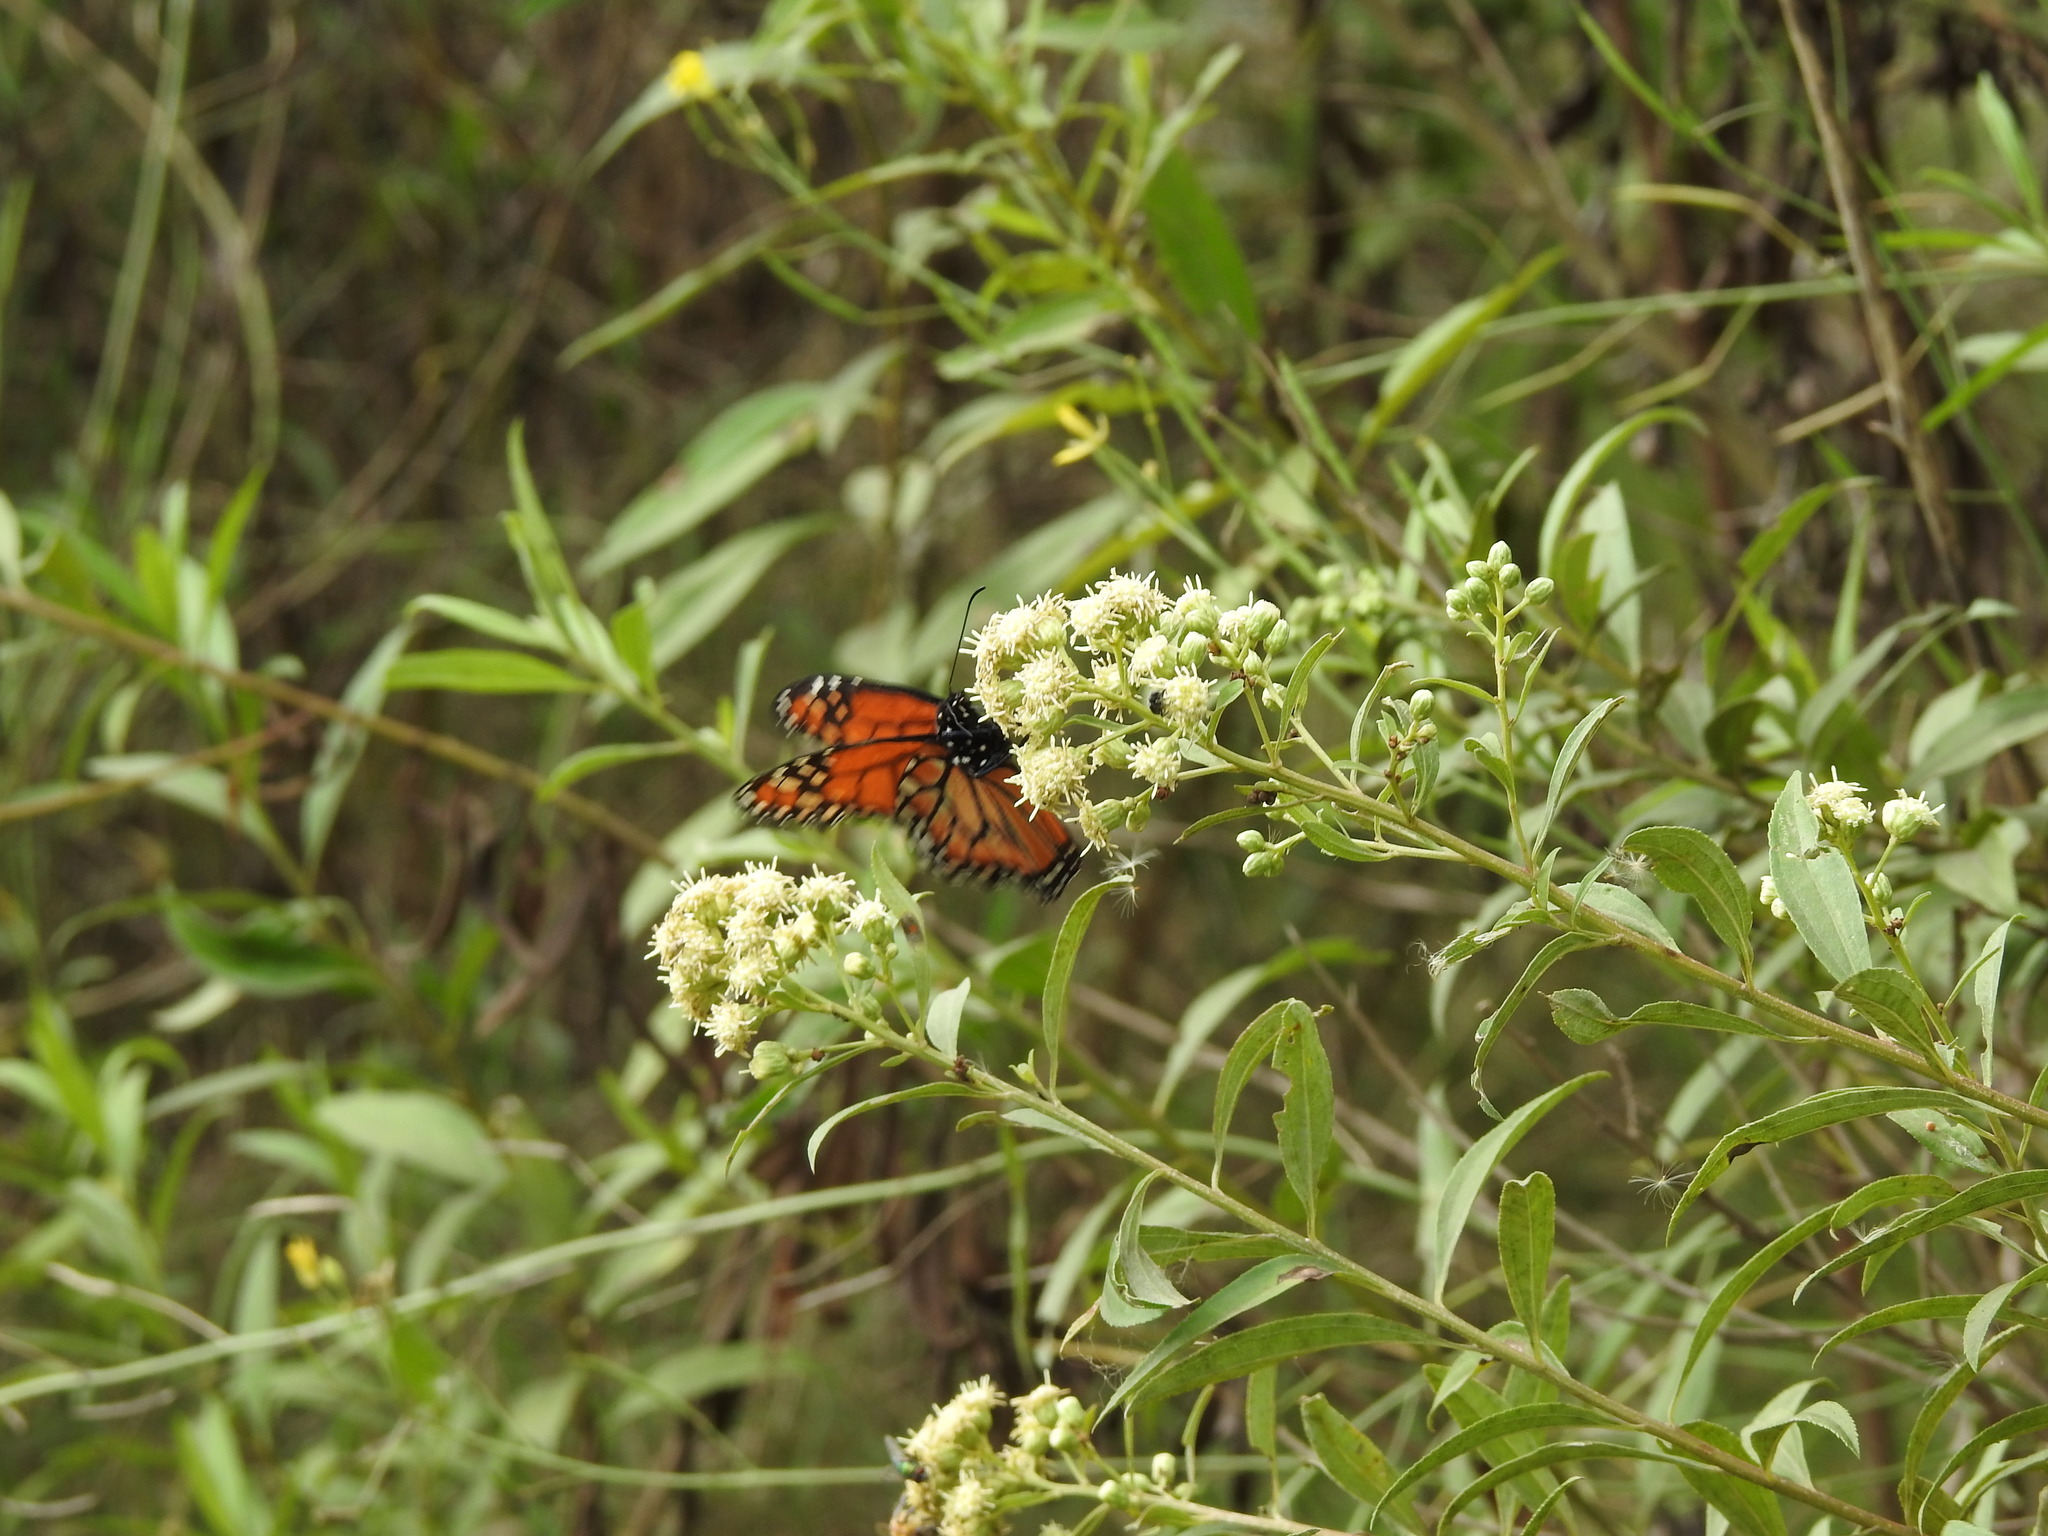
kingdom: Animalia
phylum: Arthropoda
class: Insecta
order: Lepidoptera
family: Nymphalidae
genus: Danaus
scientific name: Danaus erippus
